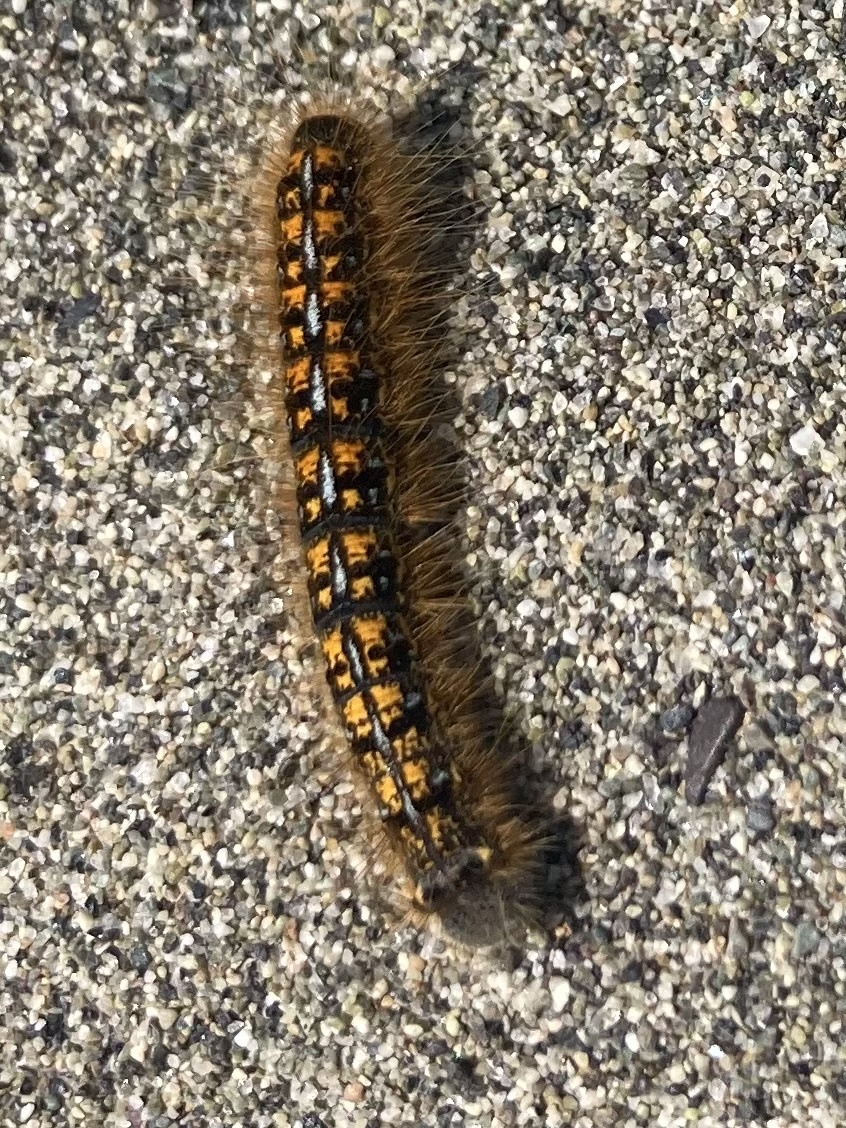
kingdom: Animalia
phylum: Arthropoda
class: Insecta
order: Lepidoptera
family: Lasiocampidae
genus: Malacosoma
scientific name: Malacosoma californica
